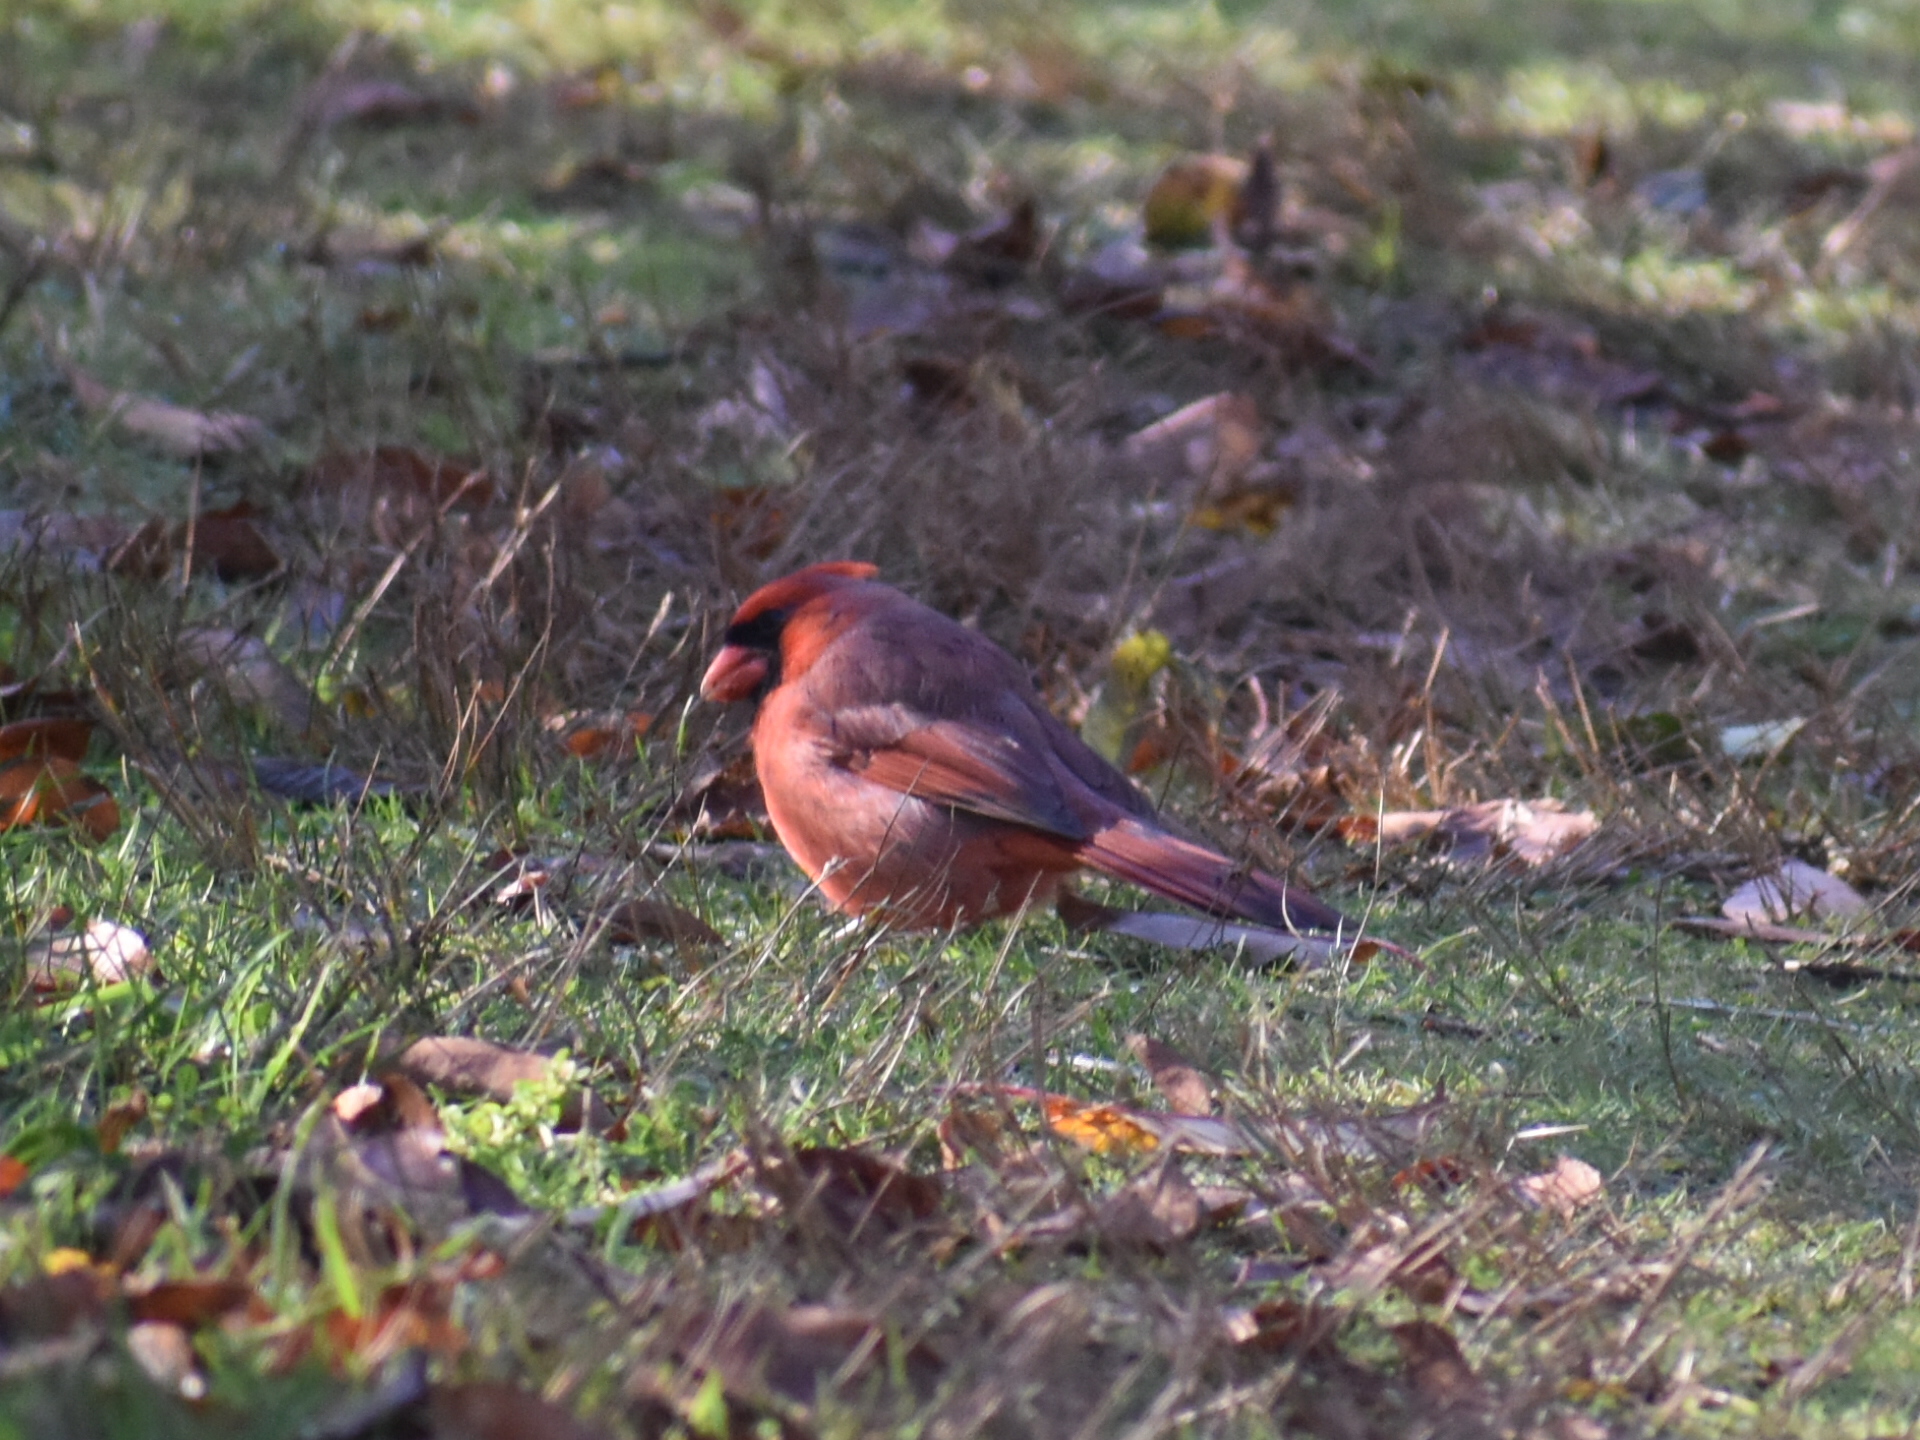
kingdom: Animalia
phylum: Chordata
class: Aves
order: Passeriformes
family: Cardinalidae
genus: Cardinalis
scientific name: Cardinalis cardinalis
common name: Northern cardinal
